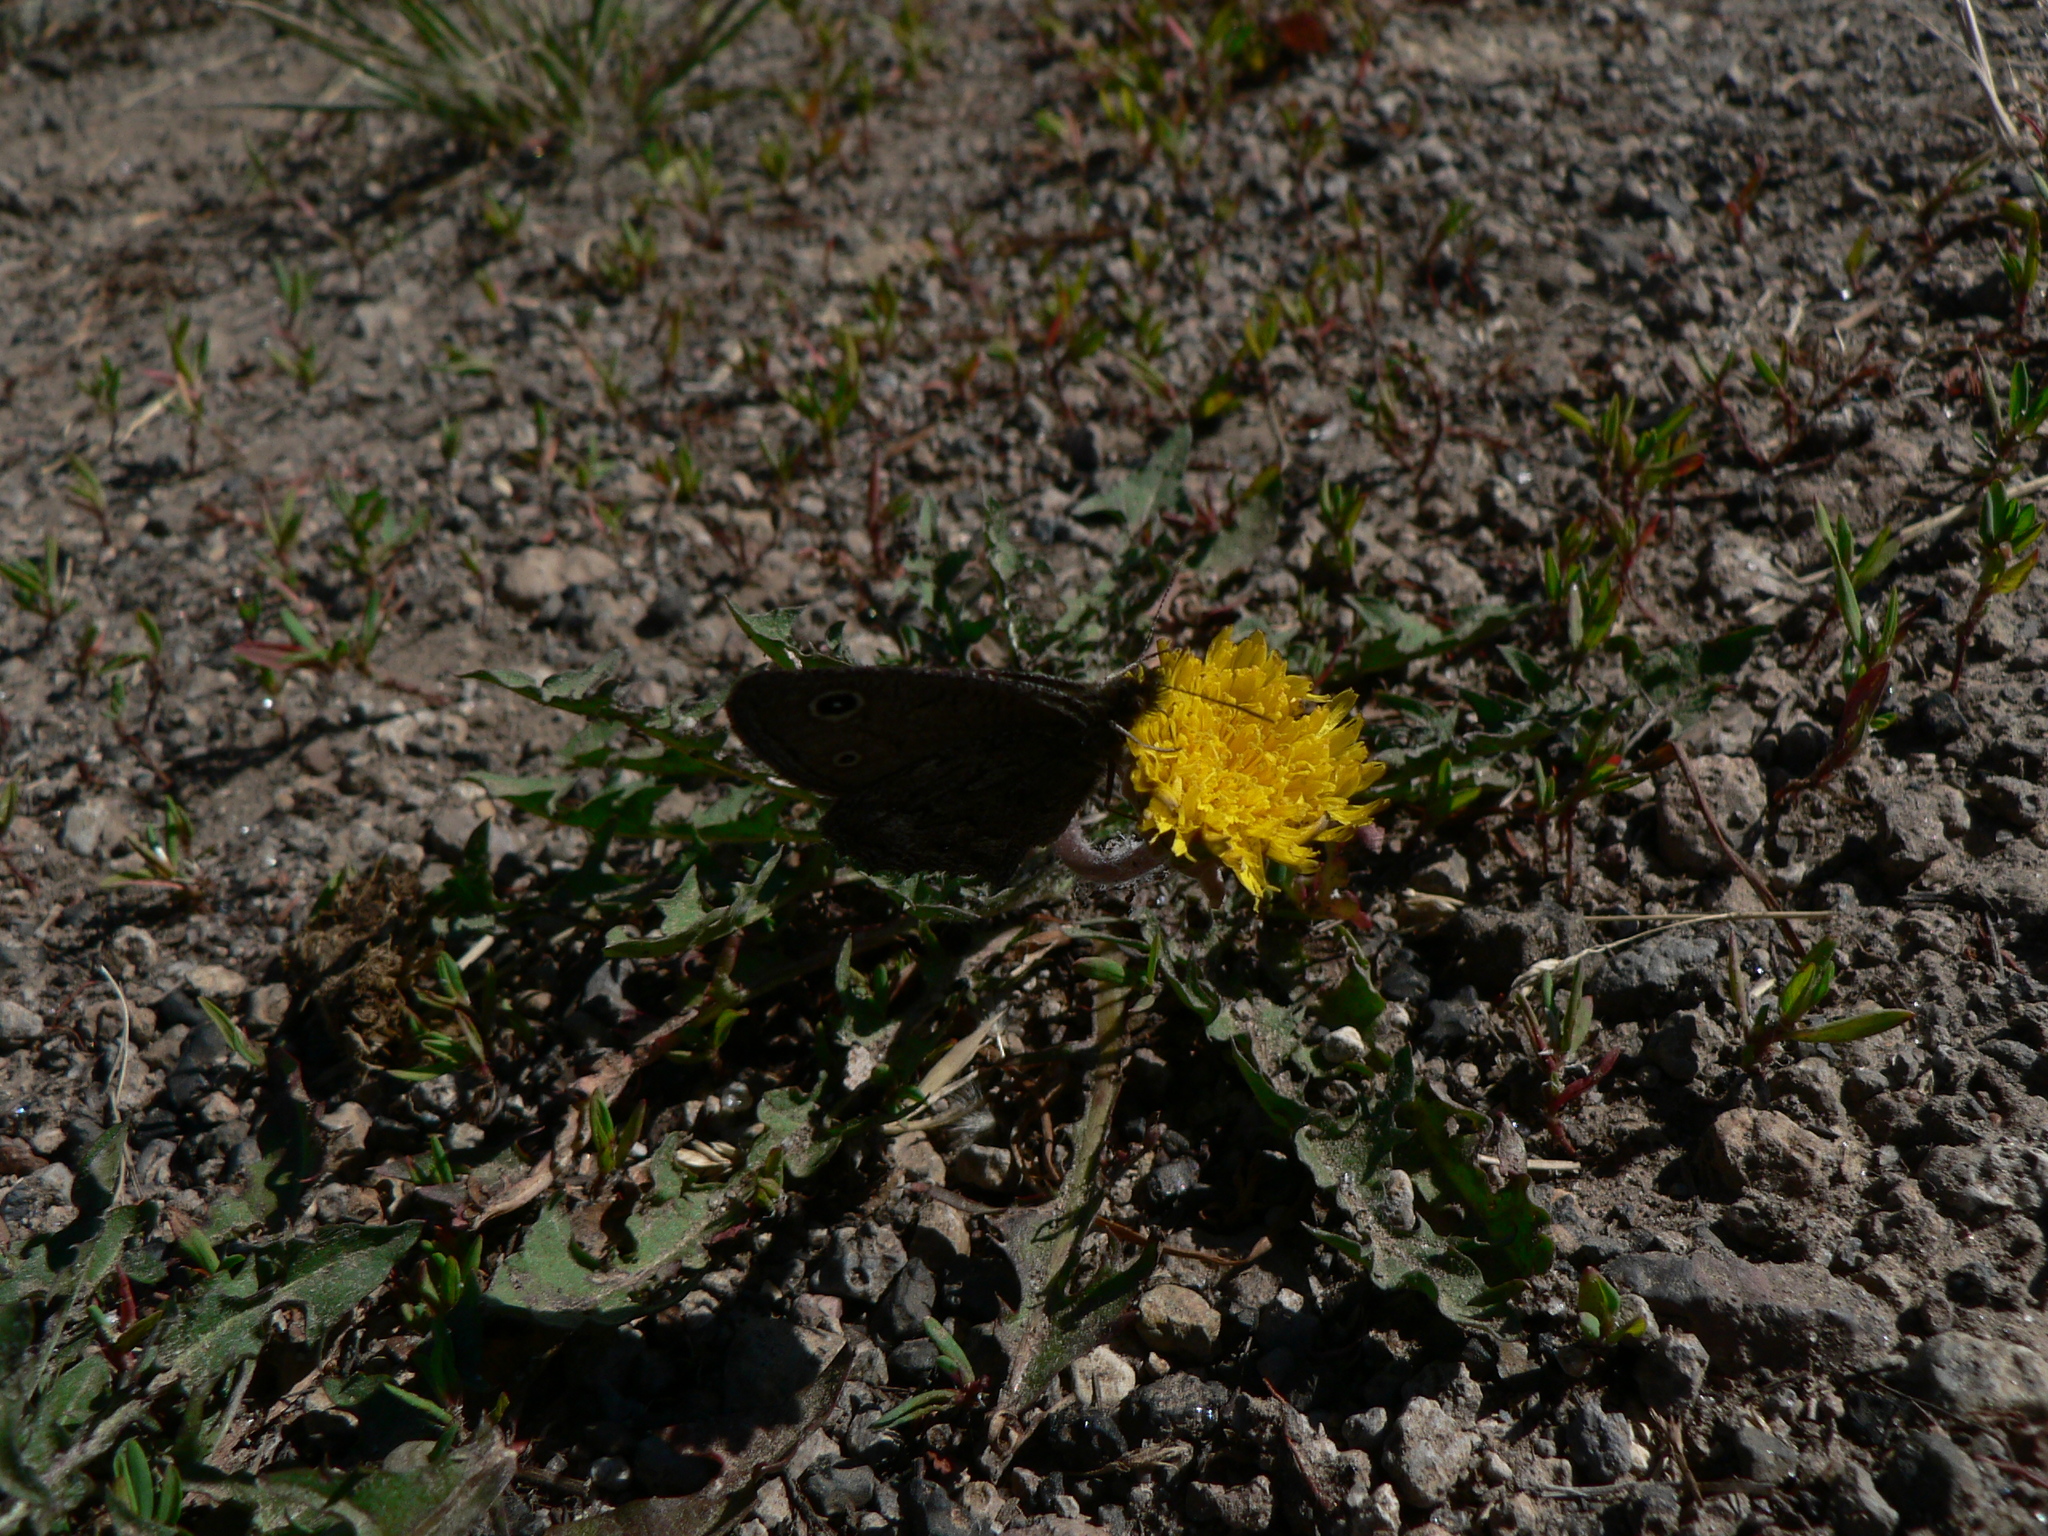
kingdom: Animalia
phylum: Arthropoda
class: Insecta
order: Lepidoptera
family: Nymphalidae
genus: Cercyonis
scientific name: Cercyonis oetus
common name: Small wood-nymph
